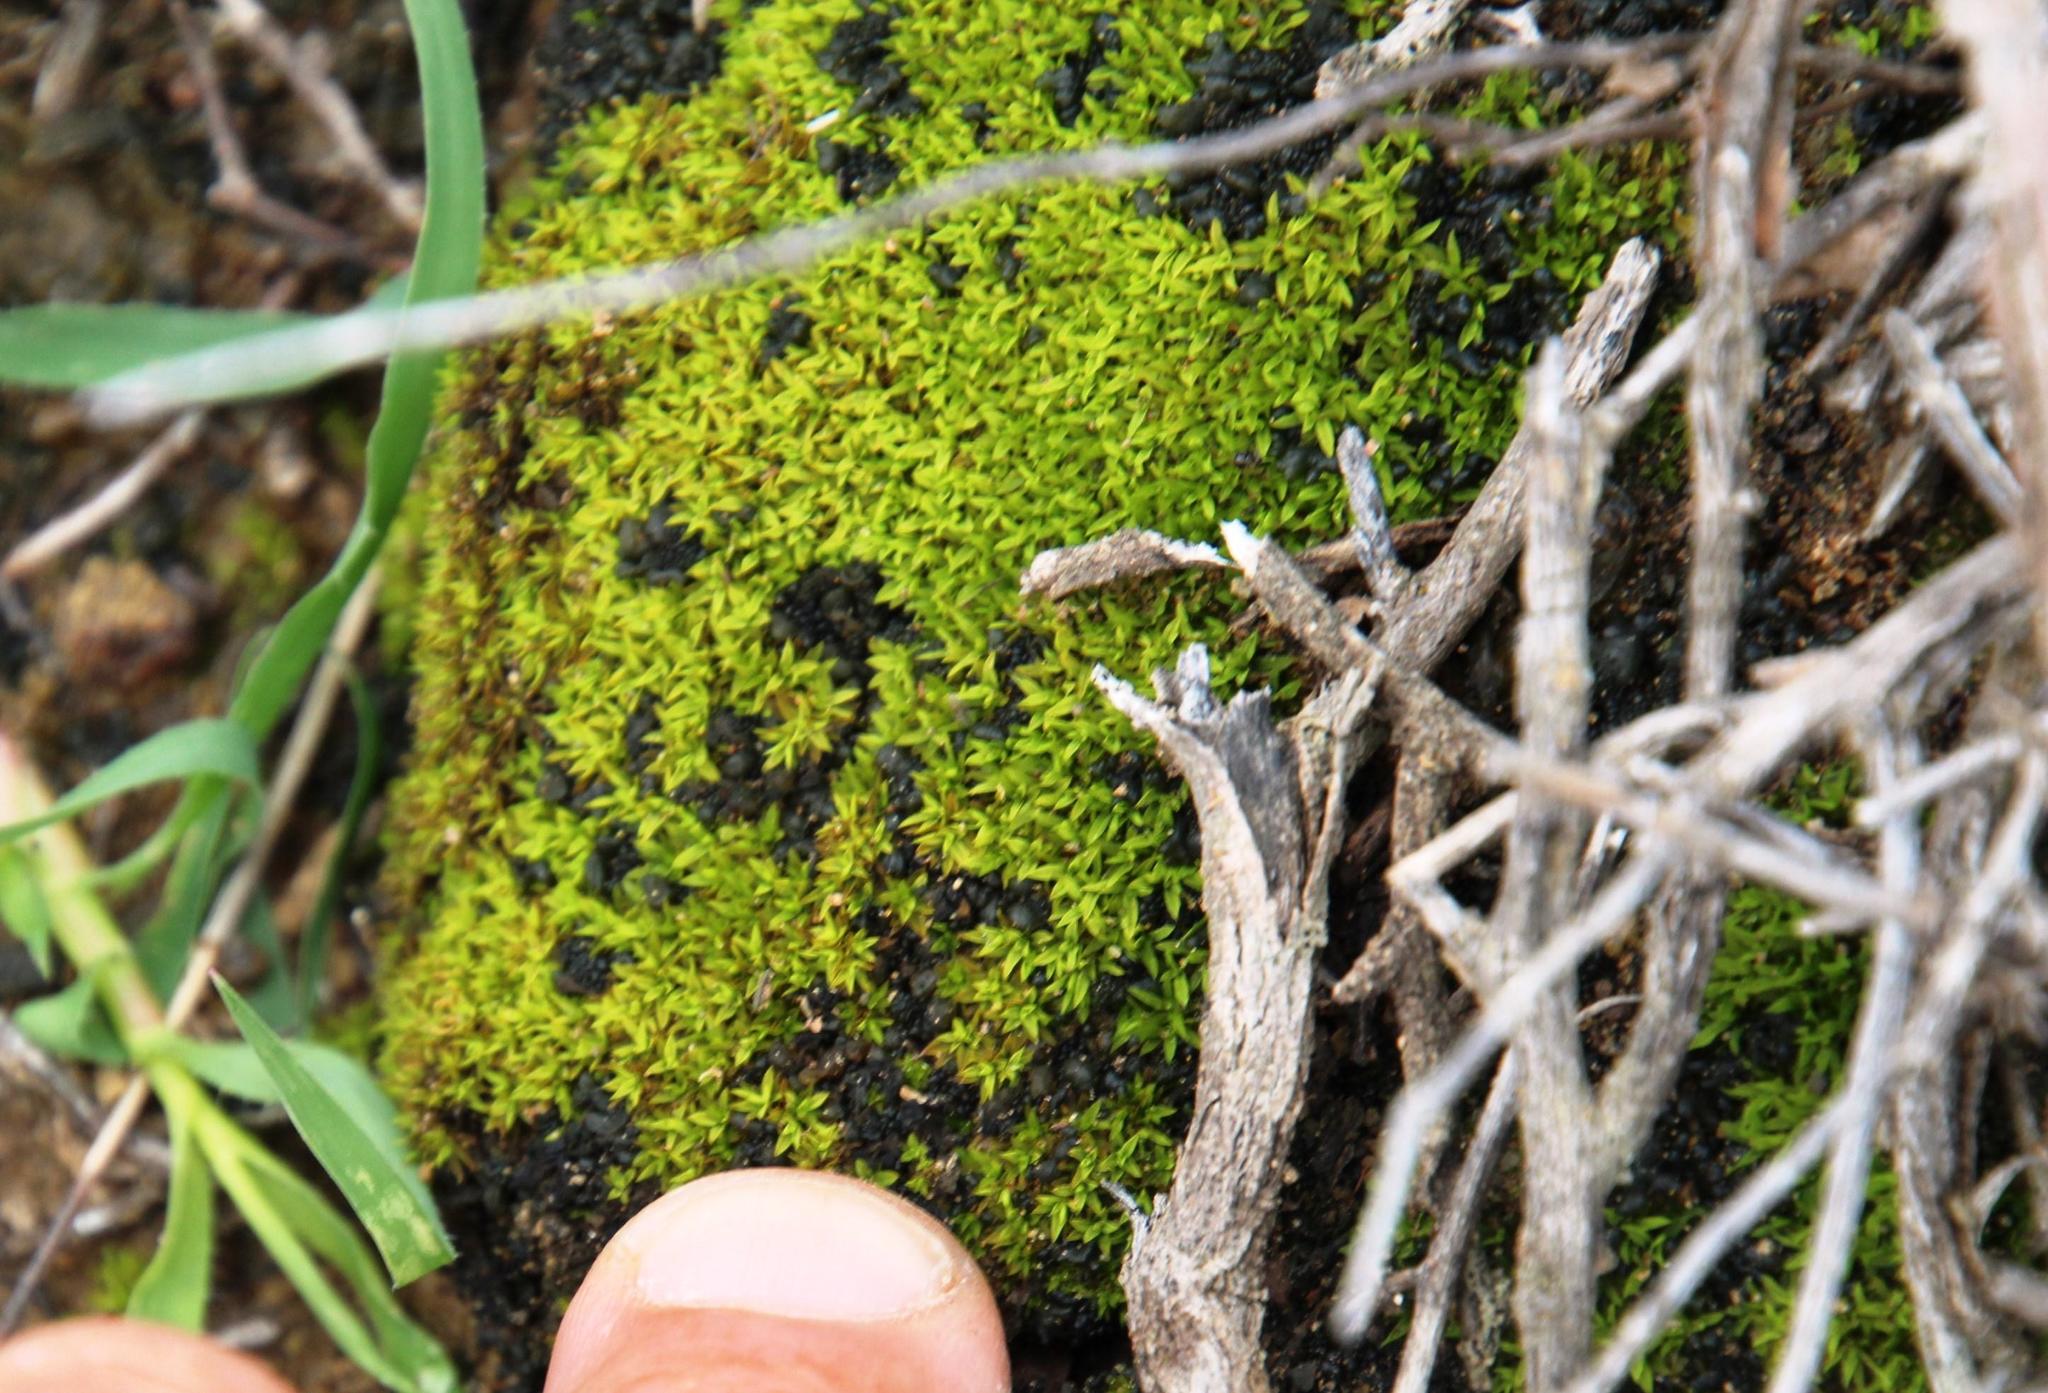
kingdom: Plantae
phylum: Bryophyta
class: Bryopsida
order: Pottiales
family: Pottiaceae
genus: Trichostomum
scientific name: Trichostomum brachydontium
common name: Variable crisp-moss
